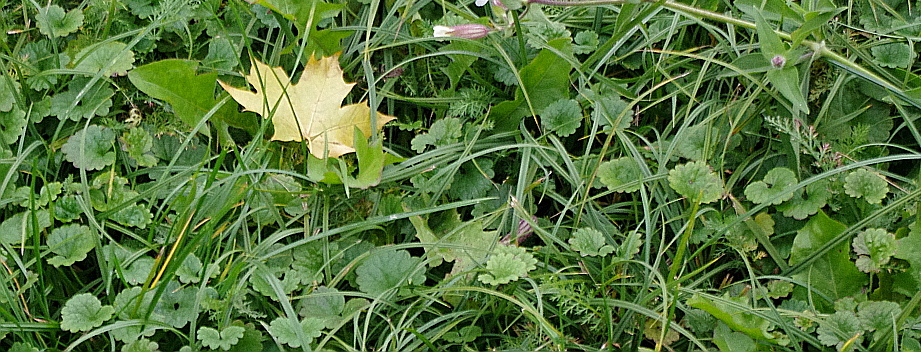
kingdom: Plantae
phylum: Tracheophyta
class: Magnoliopsida
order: Lamiales
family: Lamiaceae
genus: Glechoma
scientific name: Glechoma hederacea
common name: Ground ivy
